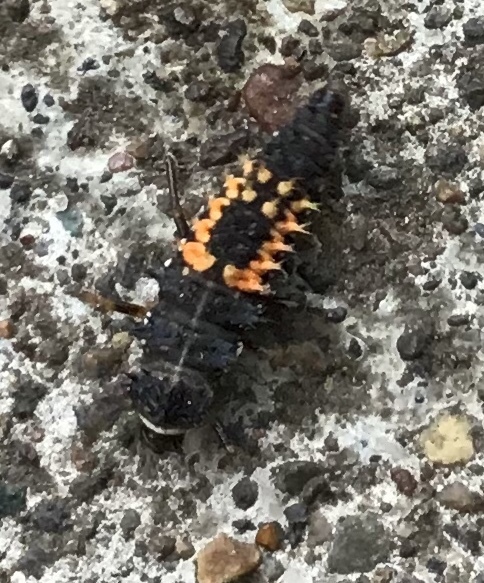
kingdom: Animalia
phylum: Arthropoda
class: Insecta
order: Coleoptera
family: Coccinellidae
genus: Harmonia
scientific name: Harmonia axyridis
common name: Harlequin ladybird
